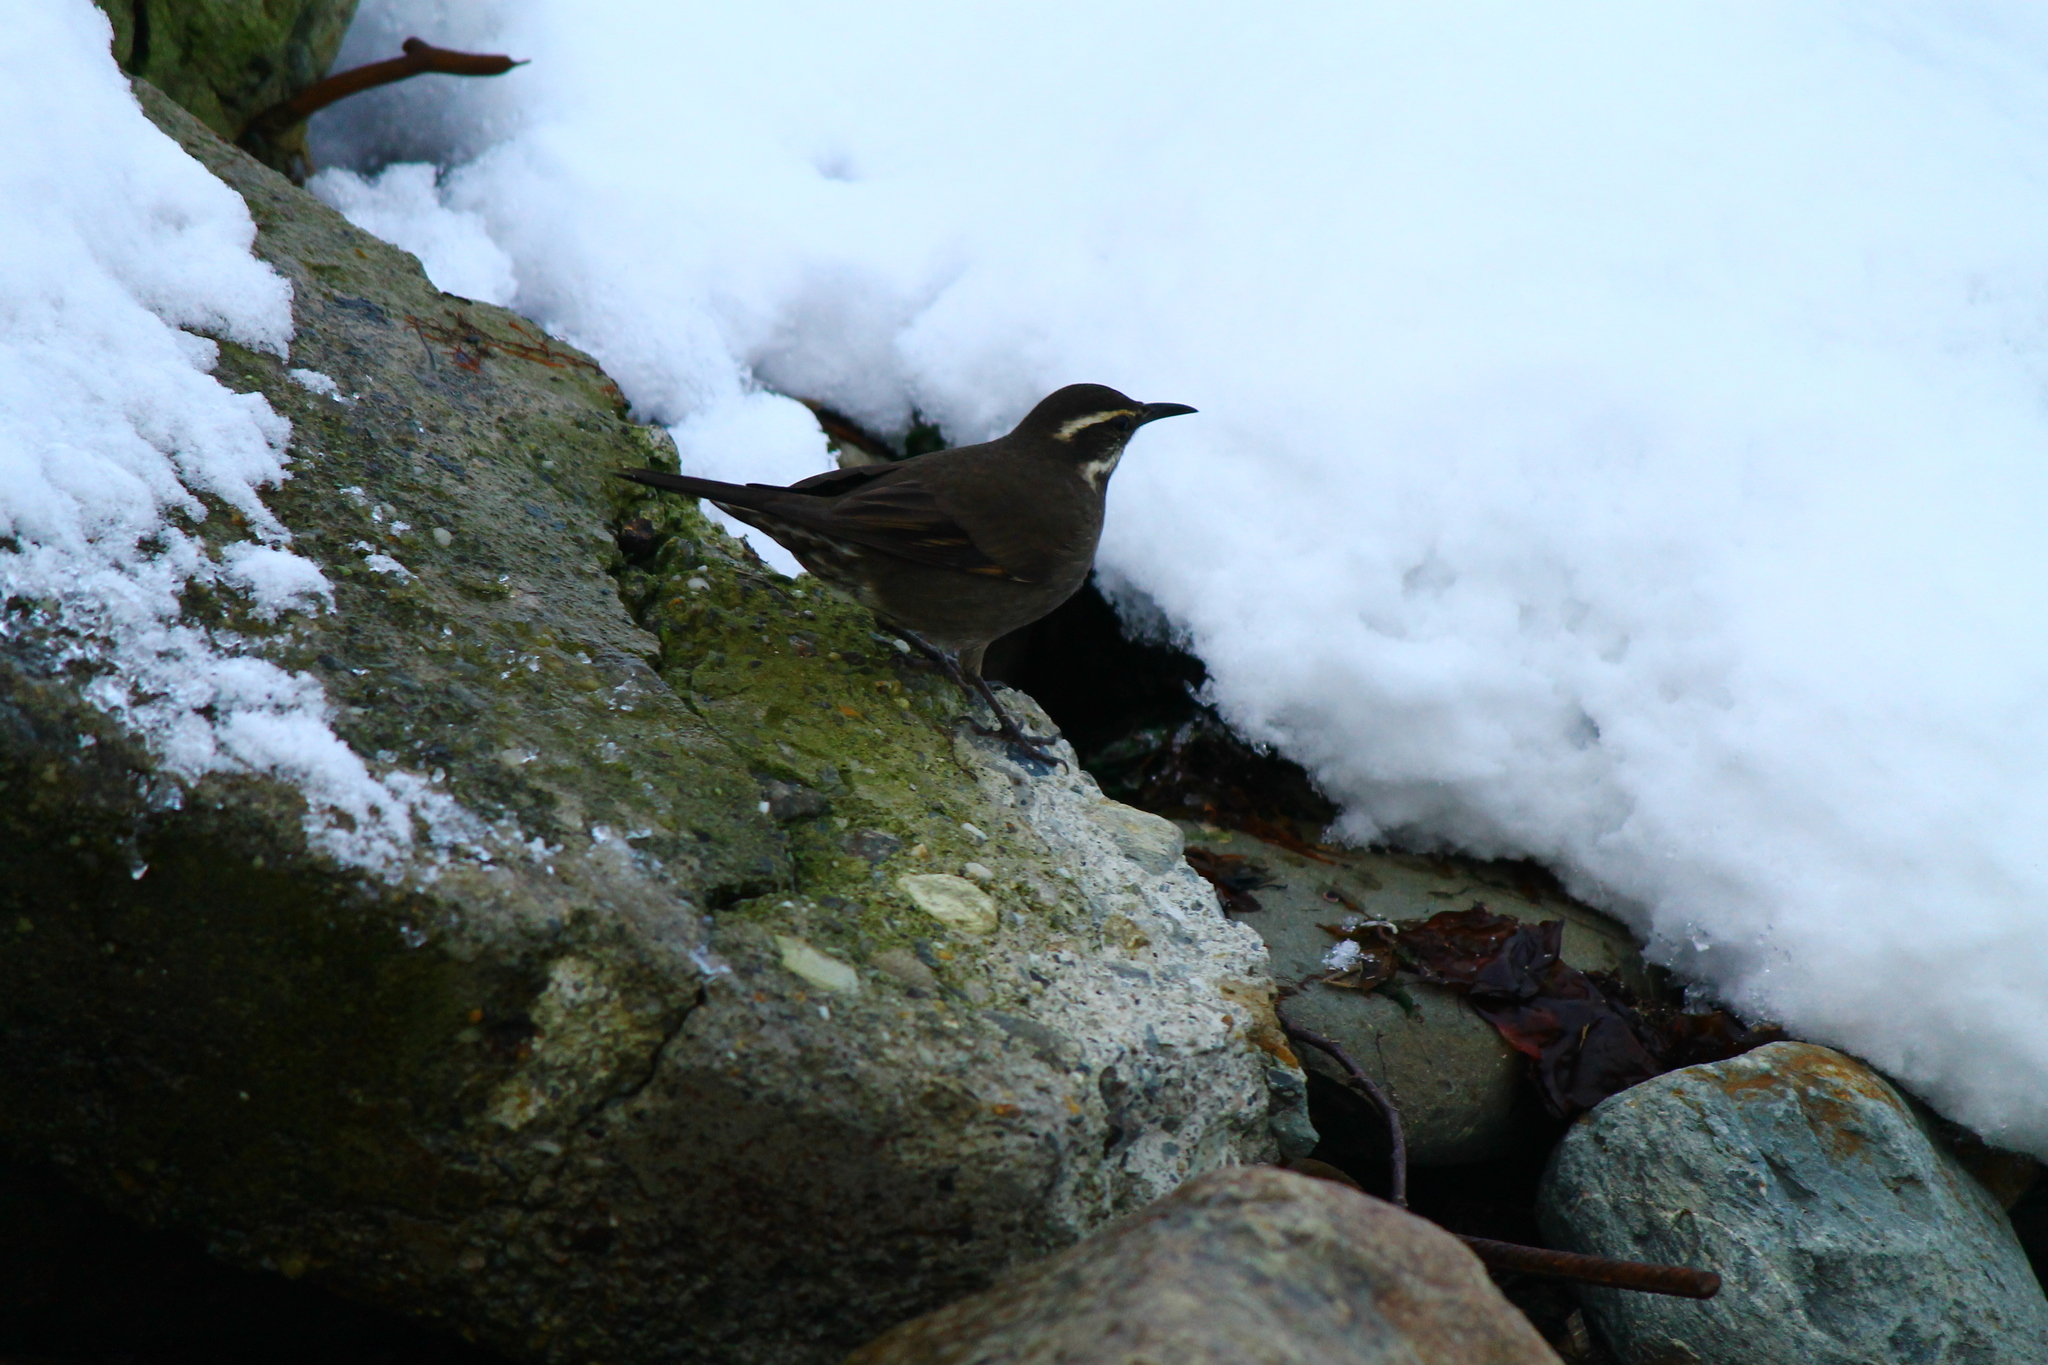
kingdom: Animalia
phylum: Chordata
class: Aves
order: Passeriformes
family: Furnariidae
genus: Cinclodes
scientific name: Cinclodes patagonicus
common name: Dark-bellied cinclodes
